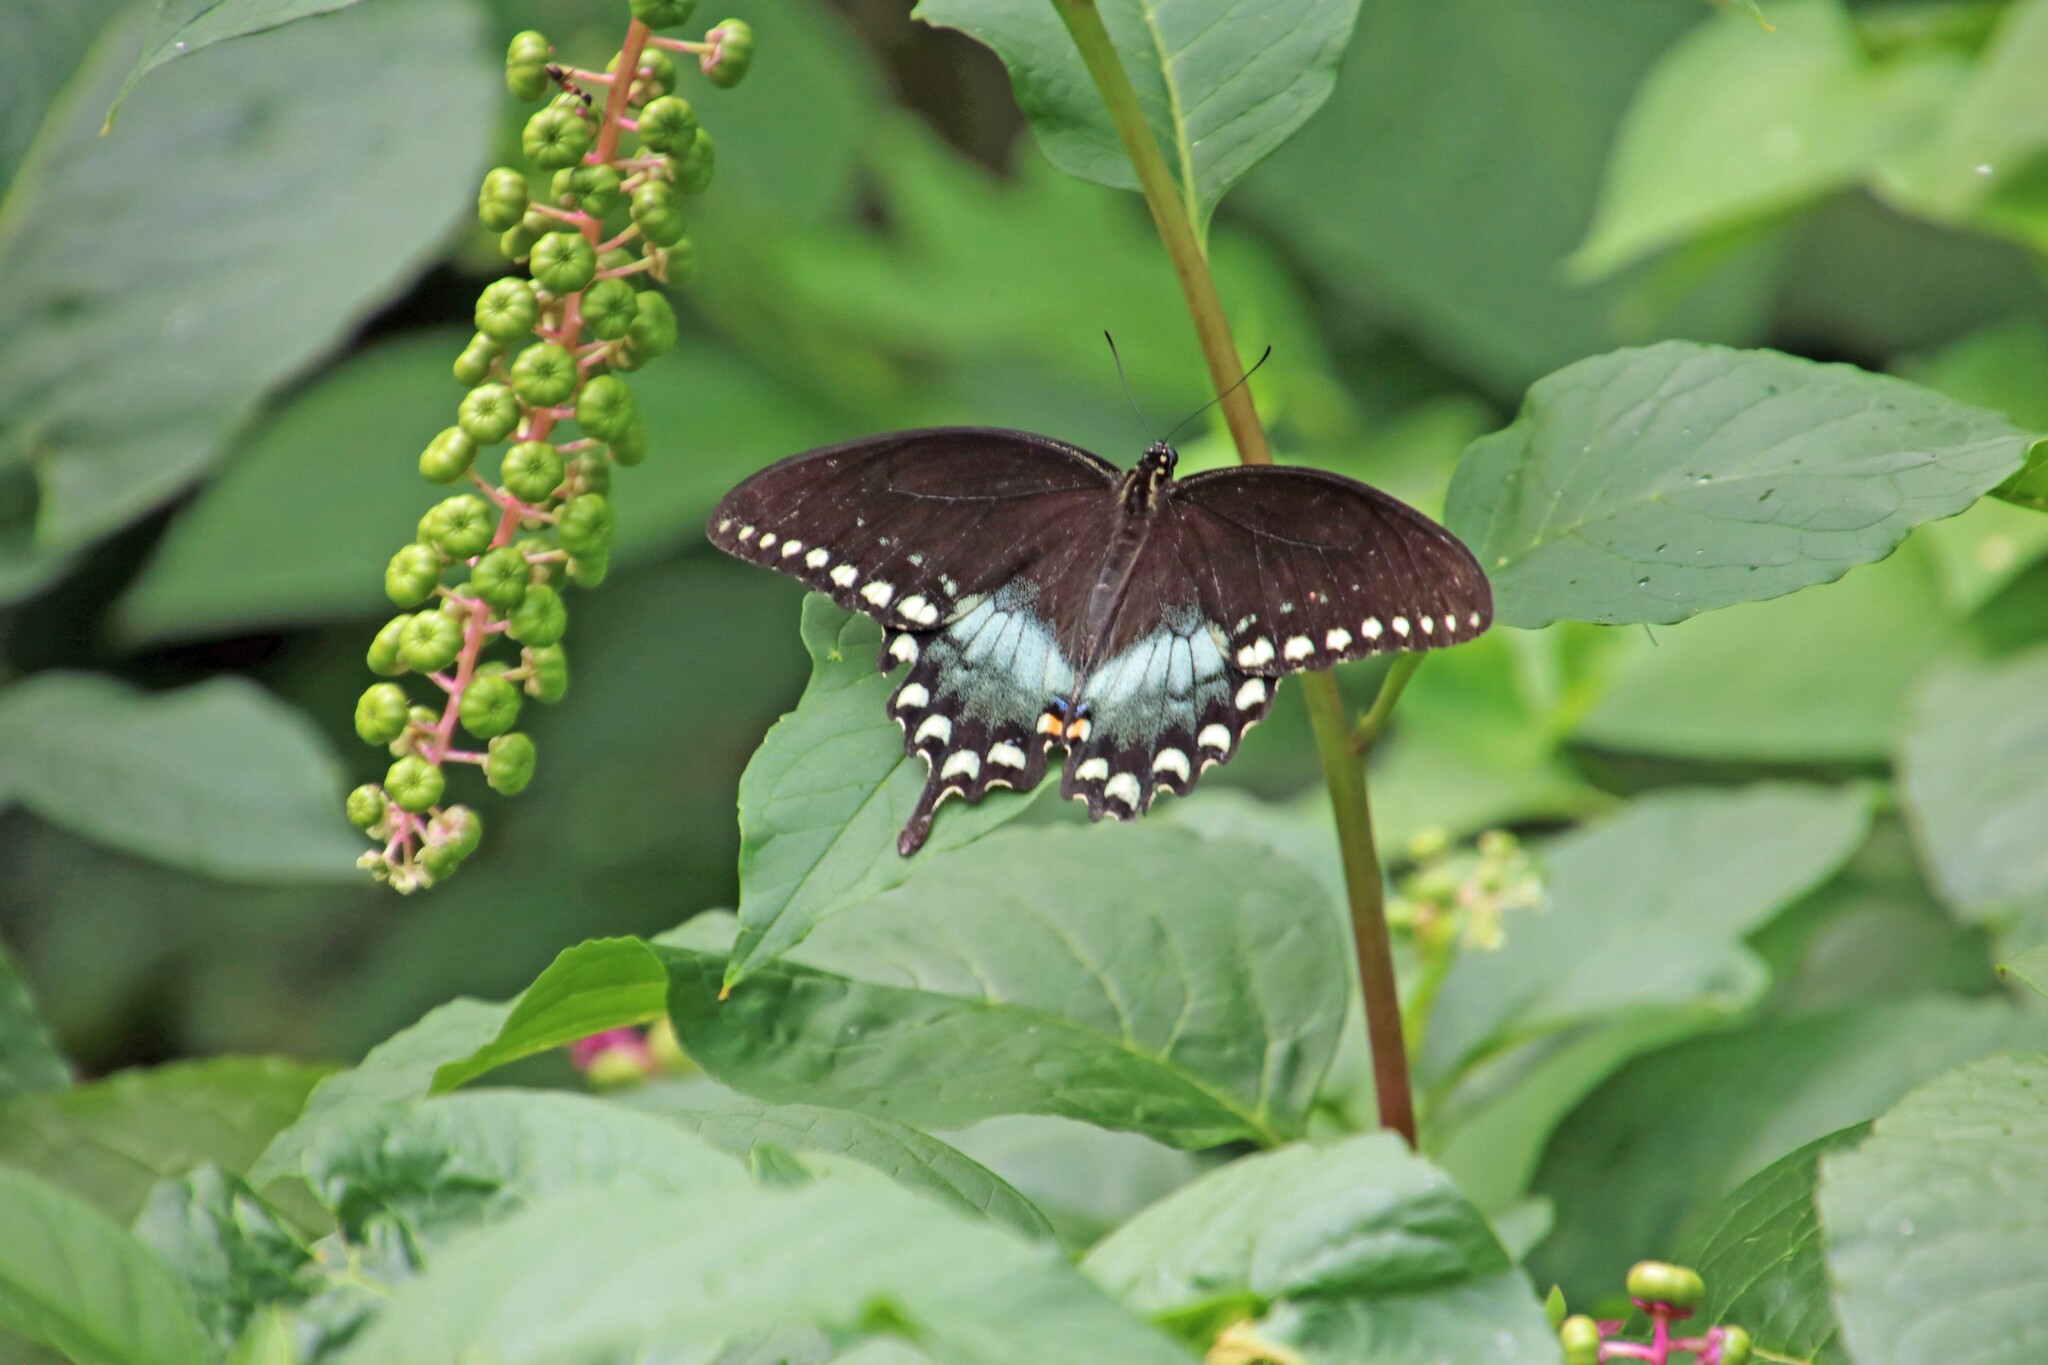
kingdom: Animalia
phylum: Arthropoda
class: Insecta
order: Lepidoptera
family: Papilionidae
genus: Papilio
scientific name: Papilio troilus
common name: Spicebush swallowtail
